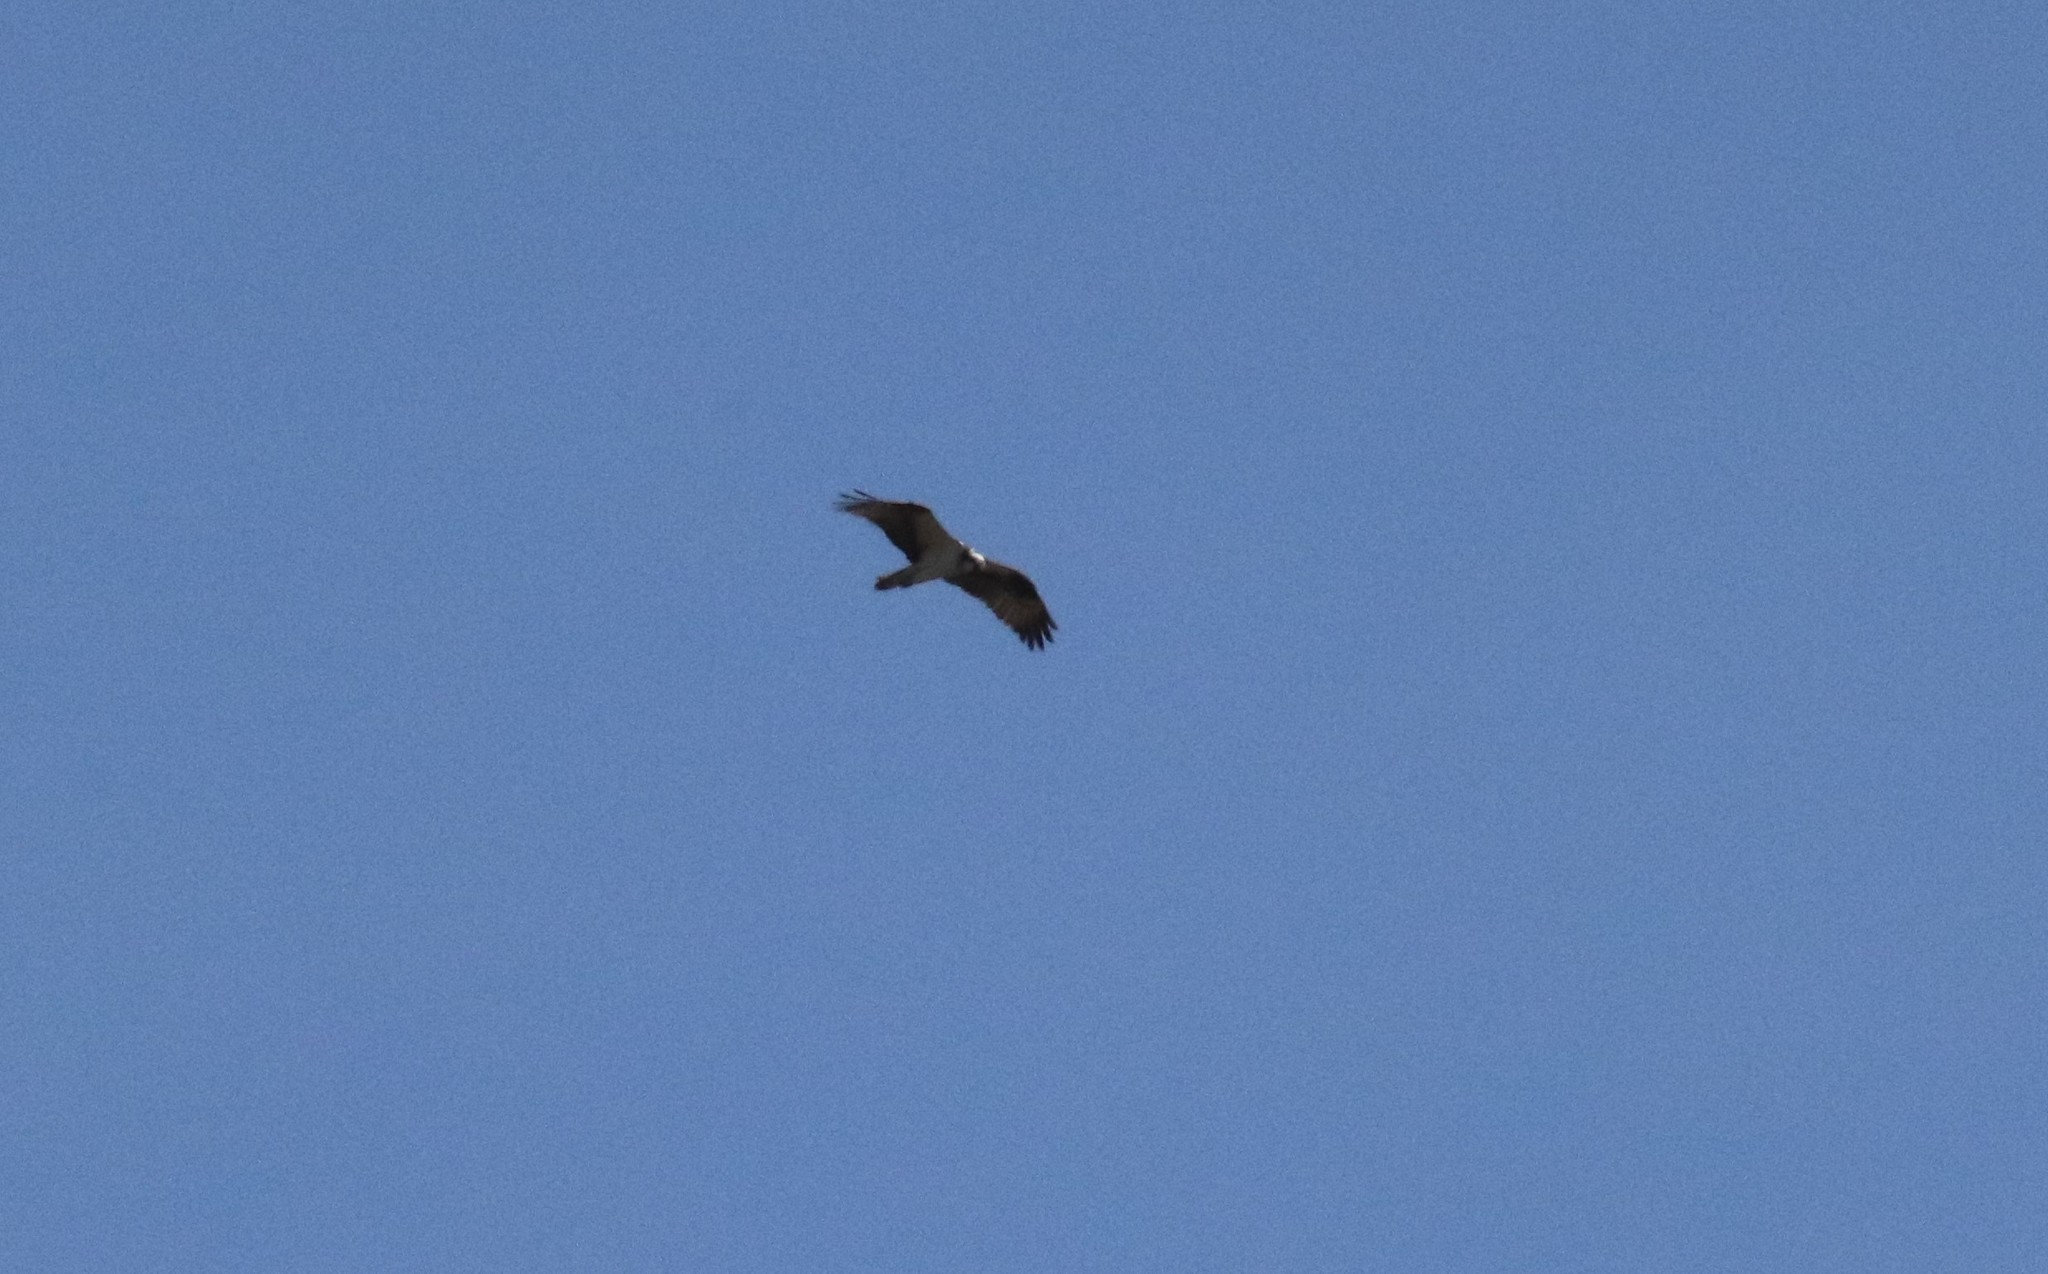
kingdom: Animalia
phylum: Chordata
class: Aves
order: Accipitriformes
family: Pandionidae
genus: Pandion
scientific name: Pandion haliaetus
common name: Osprey
